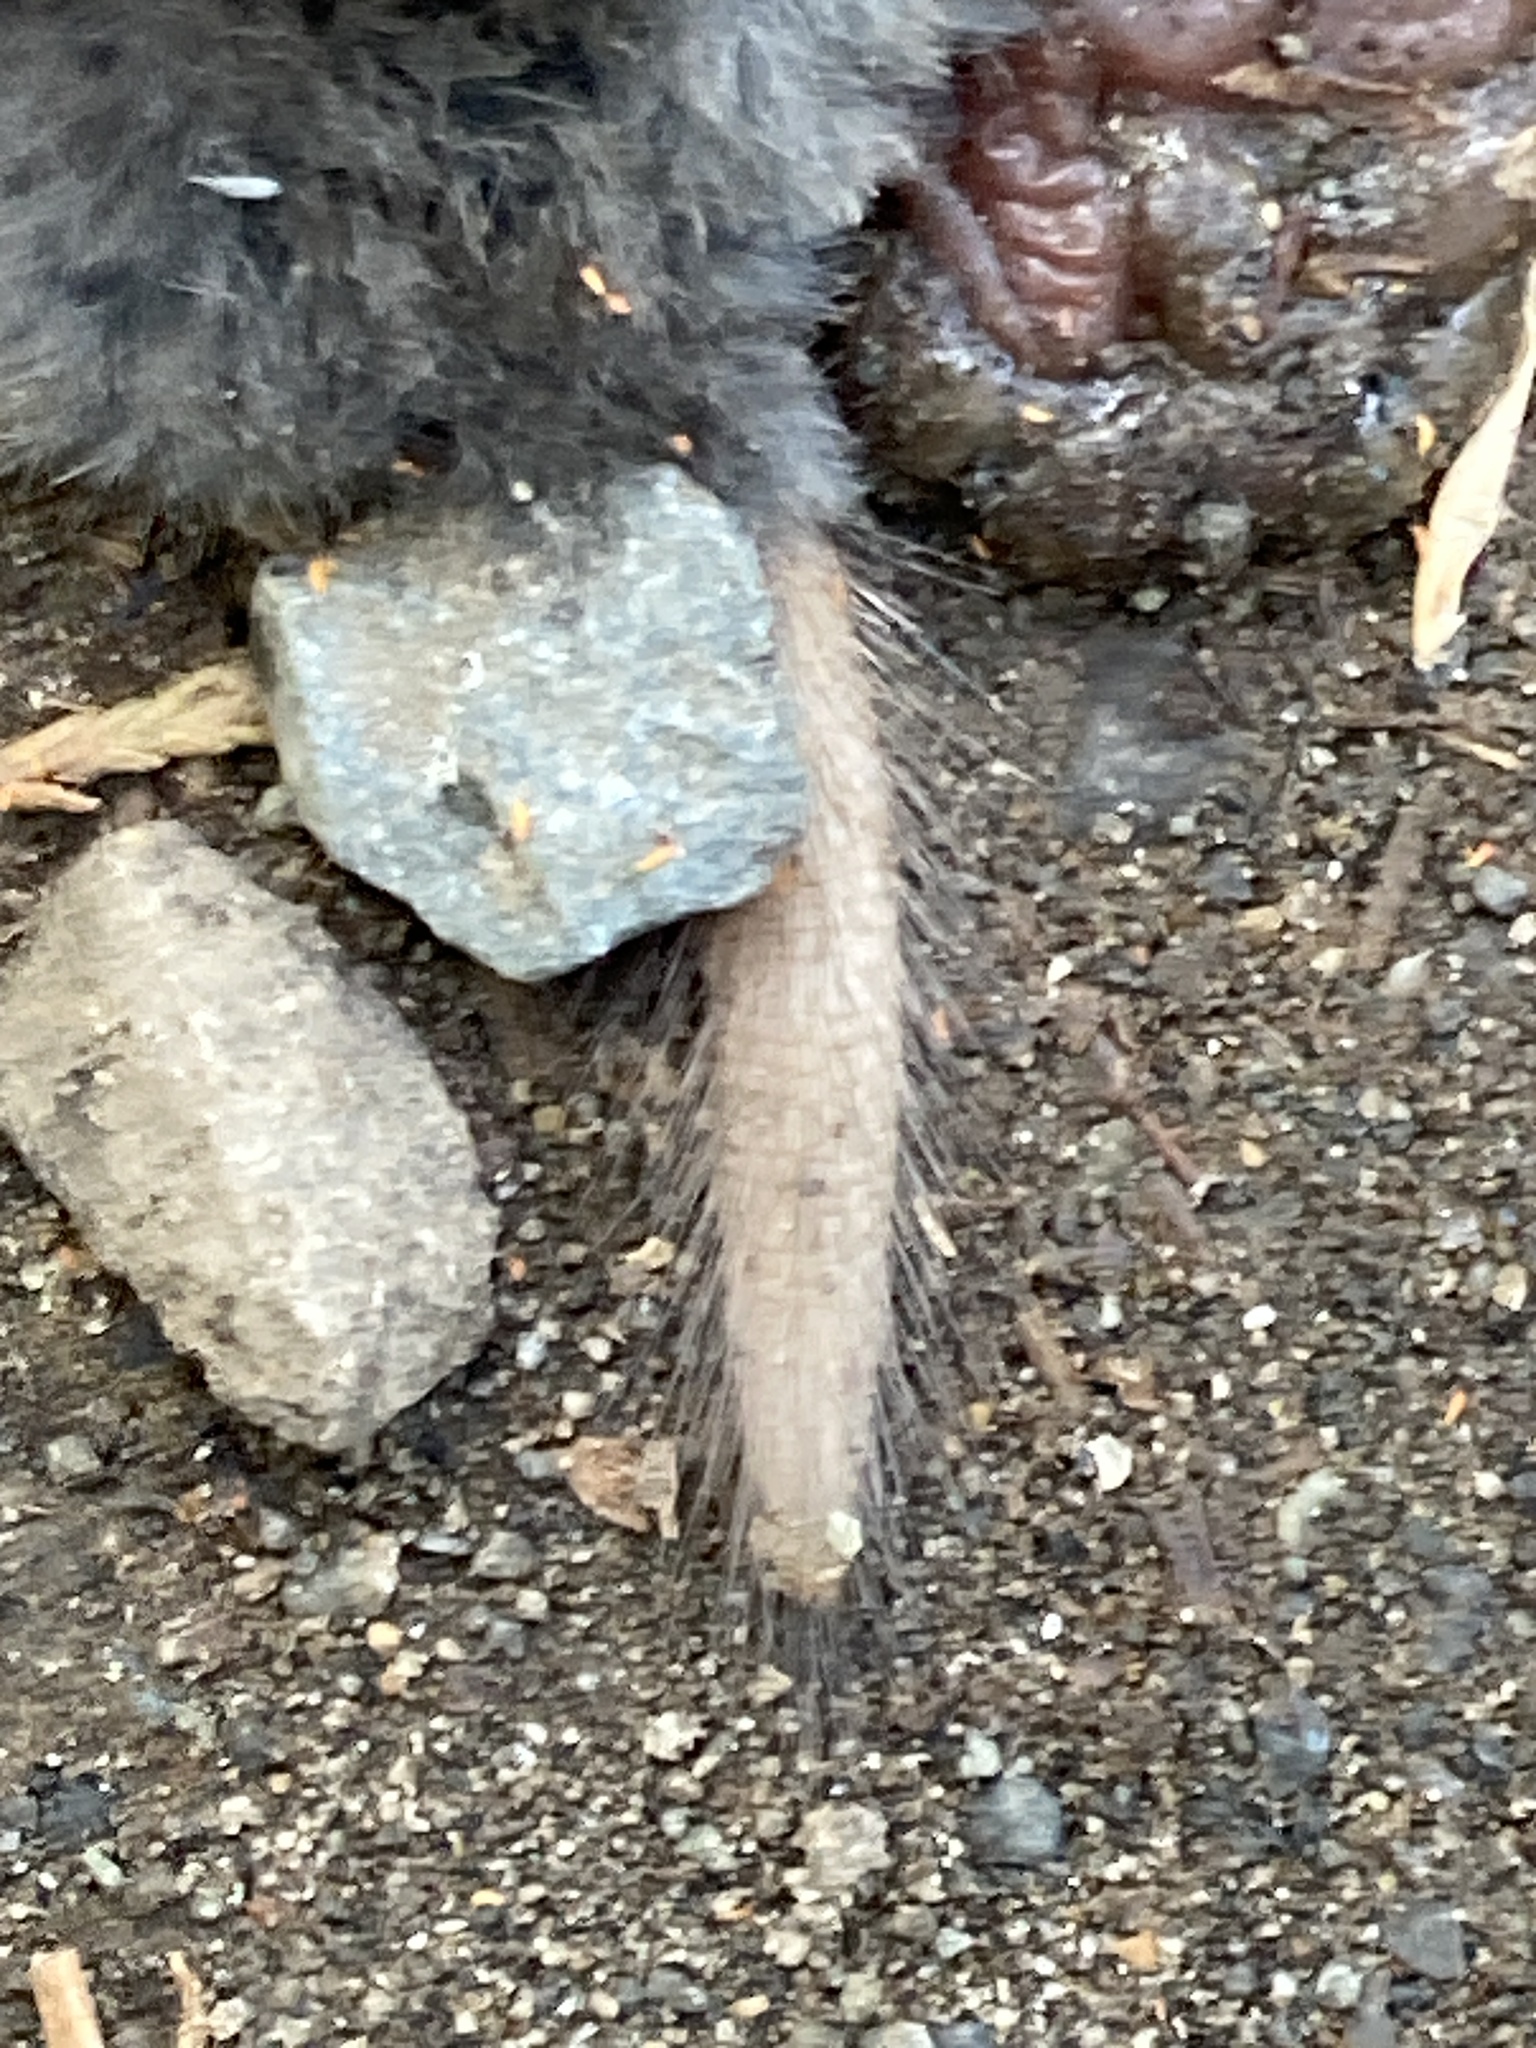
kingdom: Animalia
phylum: Chordata
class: Mammalia
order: Soricomorpha
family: Talpidae
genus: Scapanus
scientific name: Scapanus latimanus
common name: Broad-footed mole
